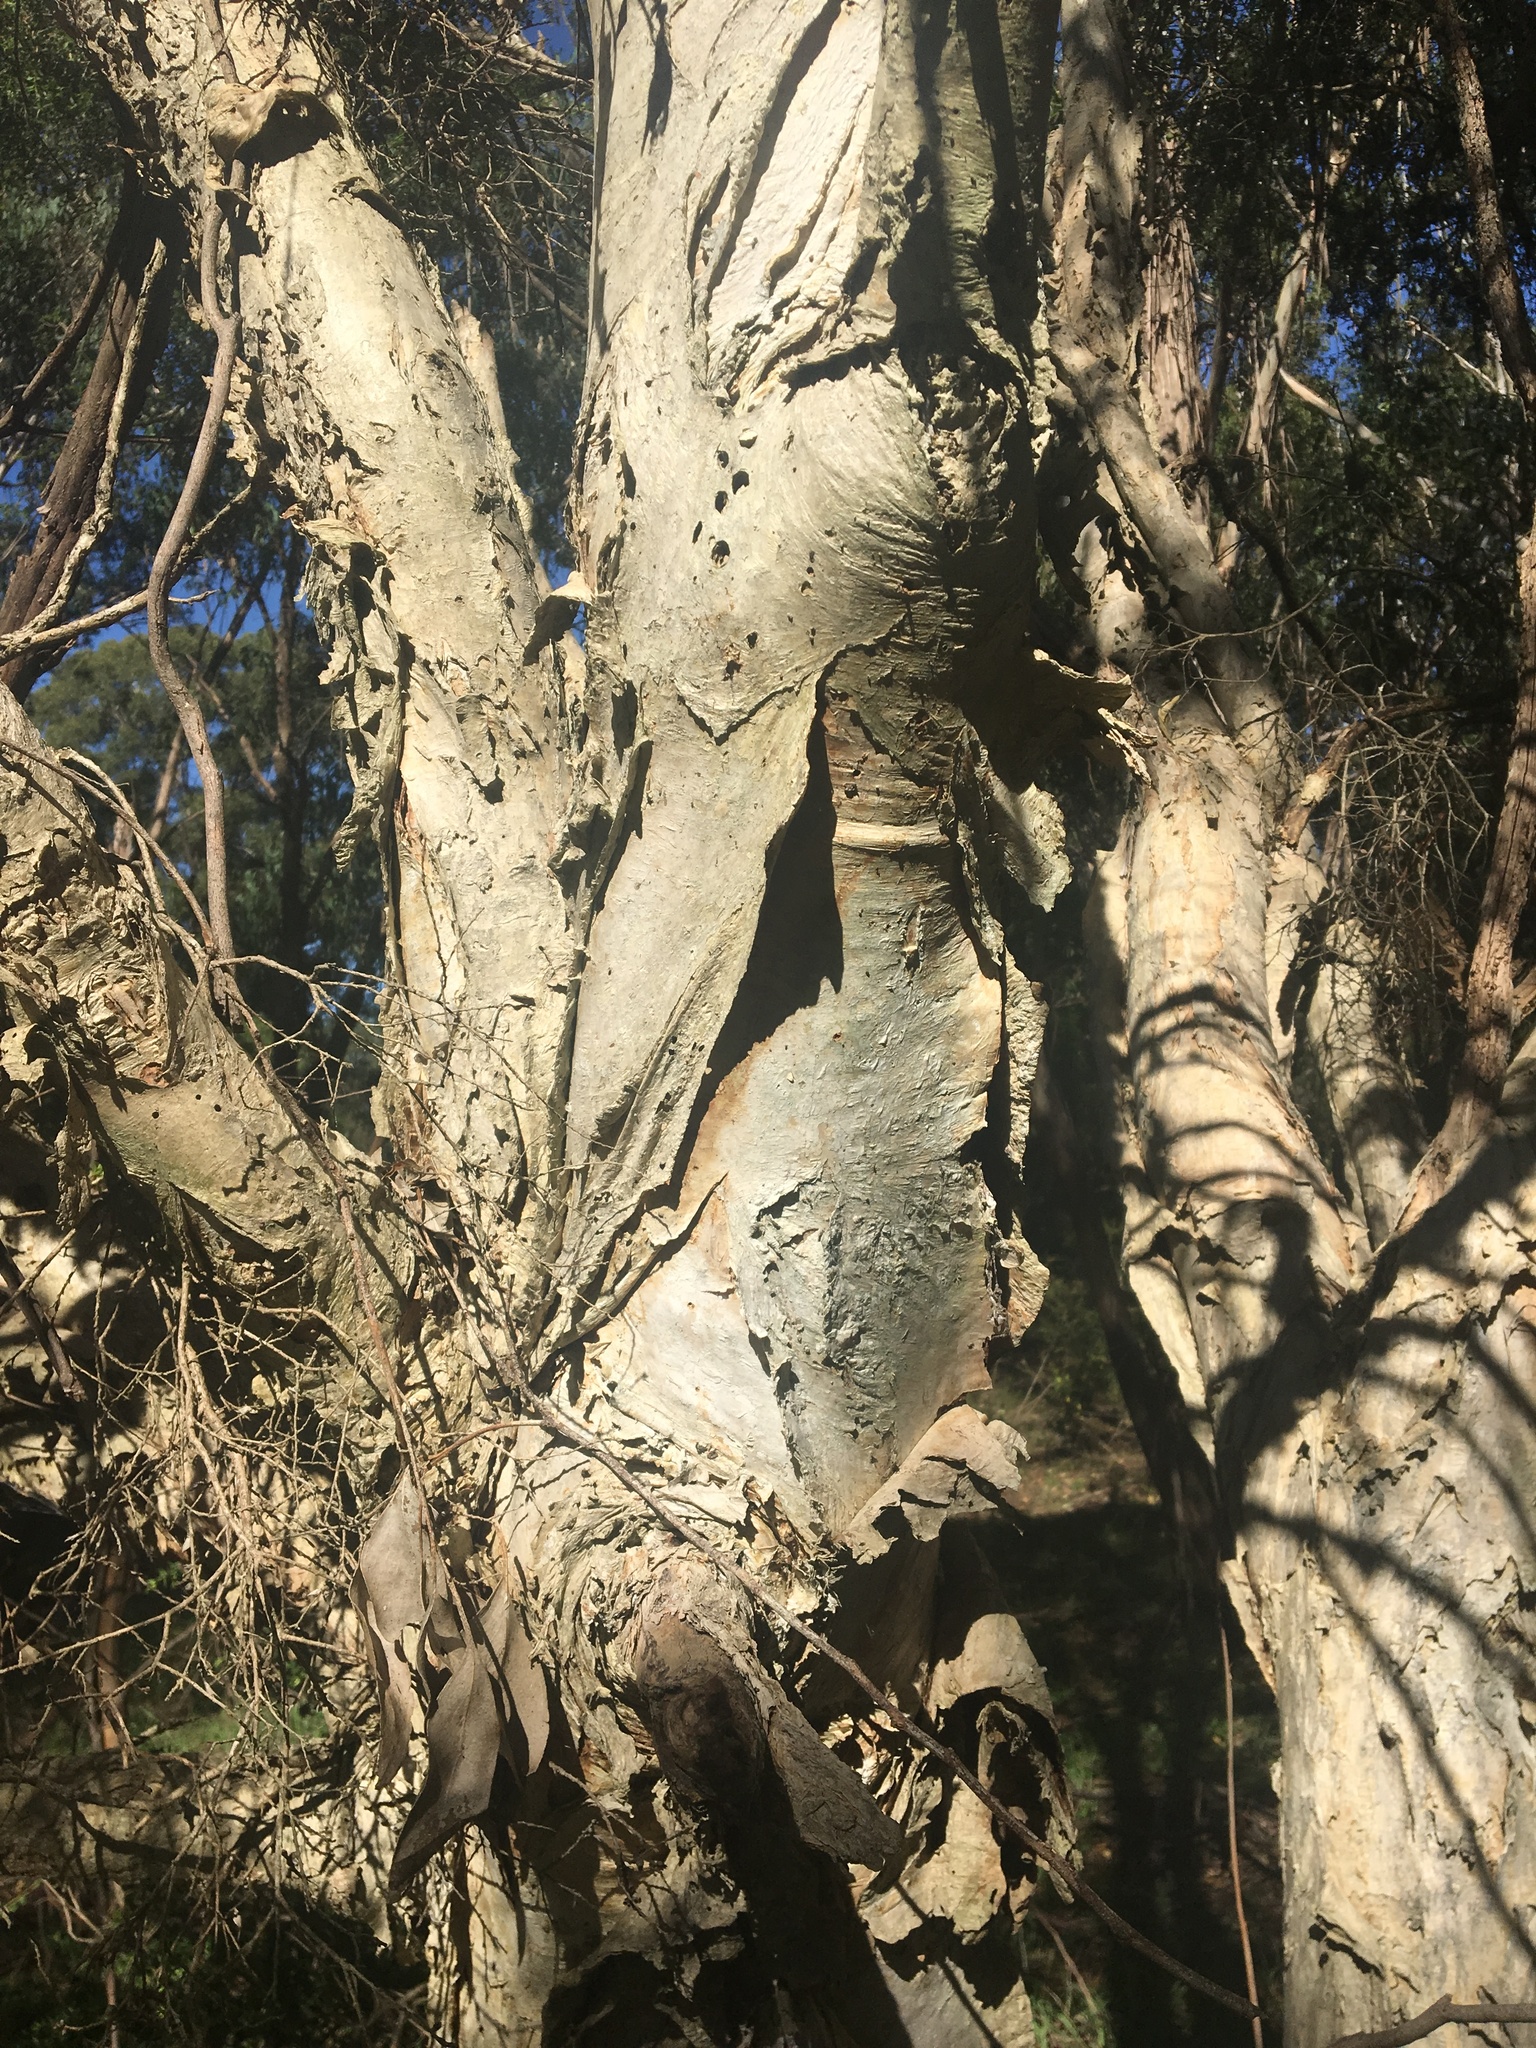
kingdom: Plantae
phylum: Tracheophyta
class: Magnoliopsida
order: Myrtales
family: Myrtaceae
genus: Melaleuca
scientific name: Melaleuca styphelioides
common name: Prickly paperbark
